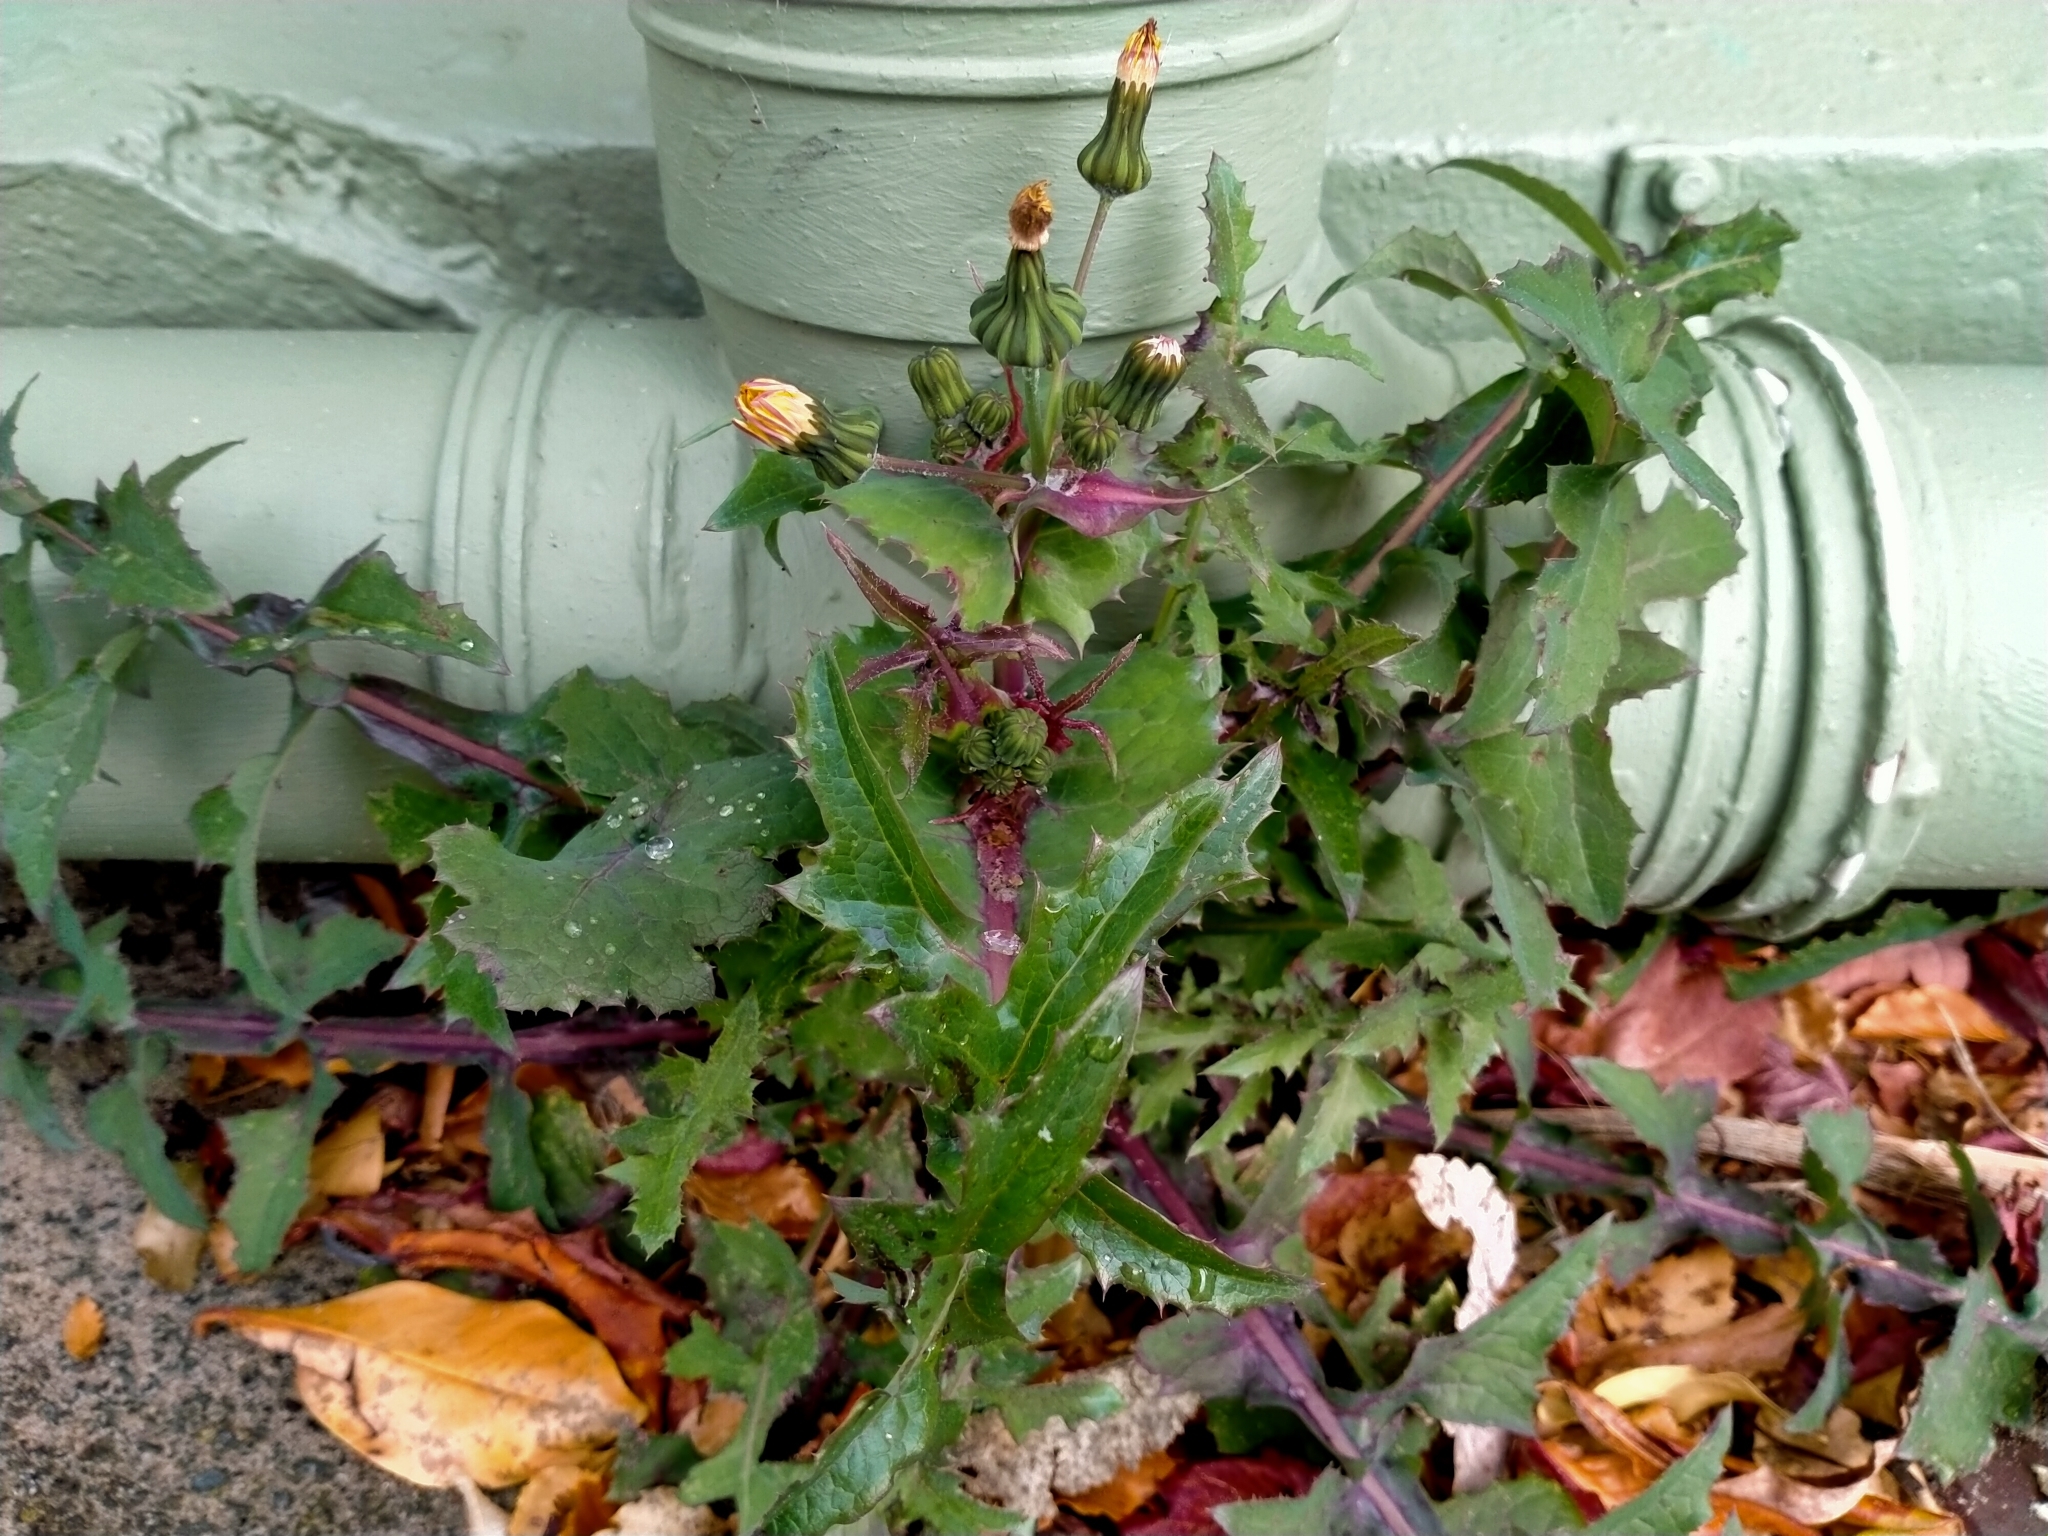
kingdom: Plantae
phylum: Tracheophyta
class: Magnoliopsida
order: Asterales
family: Asteraceae
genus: Sonchus
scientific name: Sonchus oleraceus
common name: Common sowthistle
